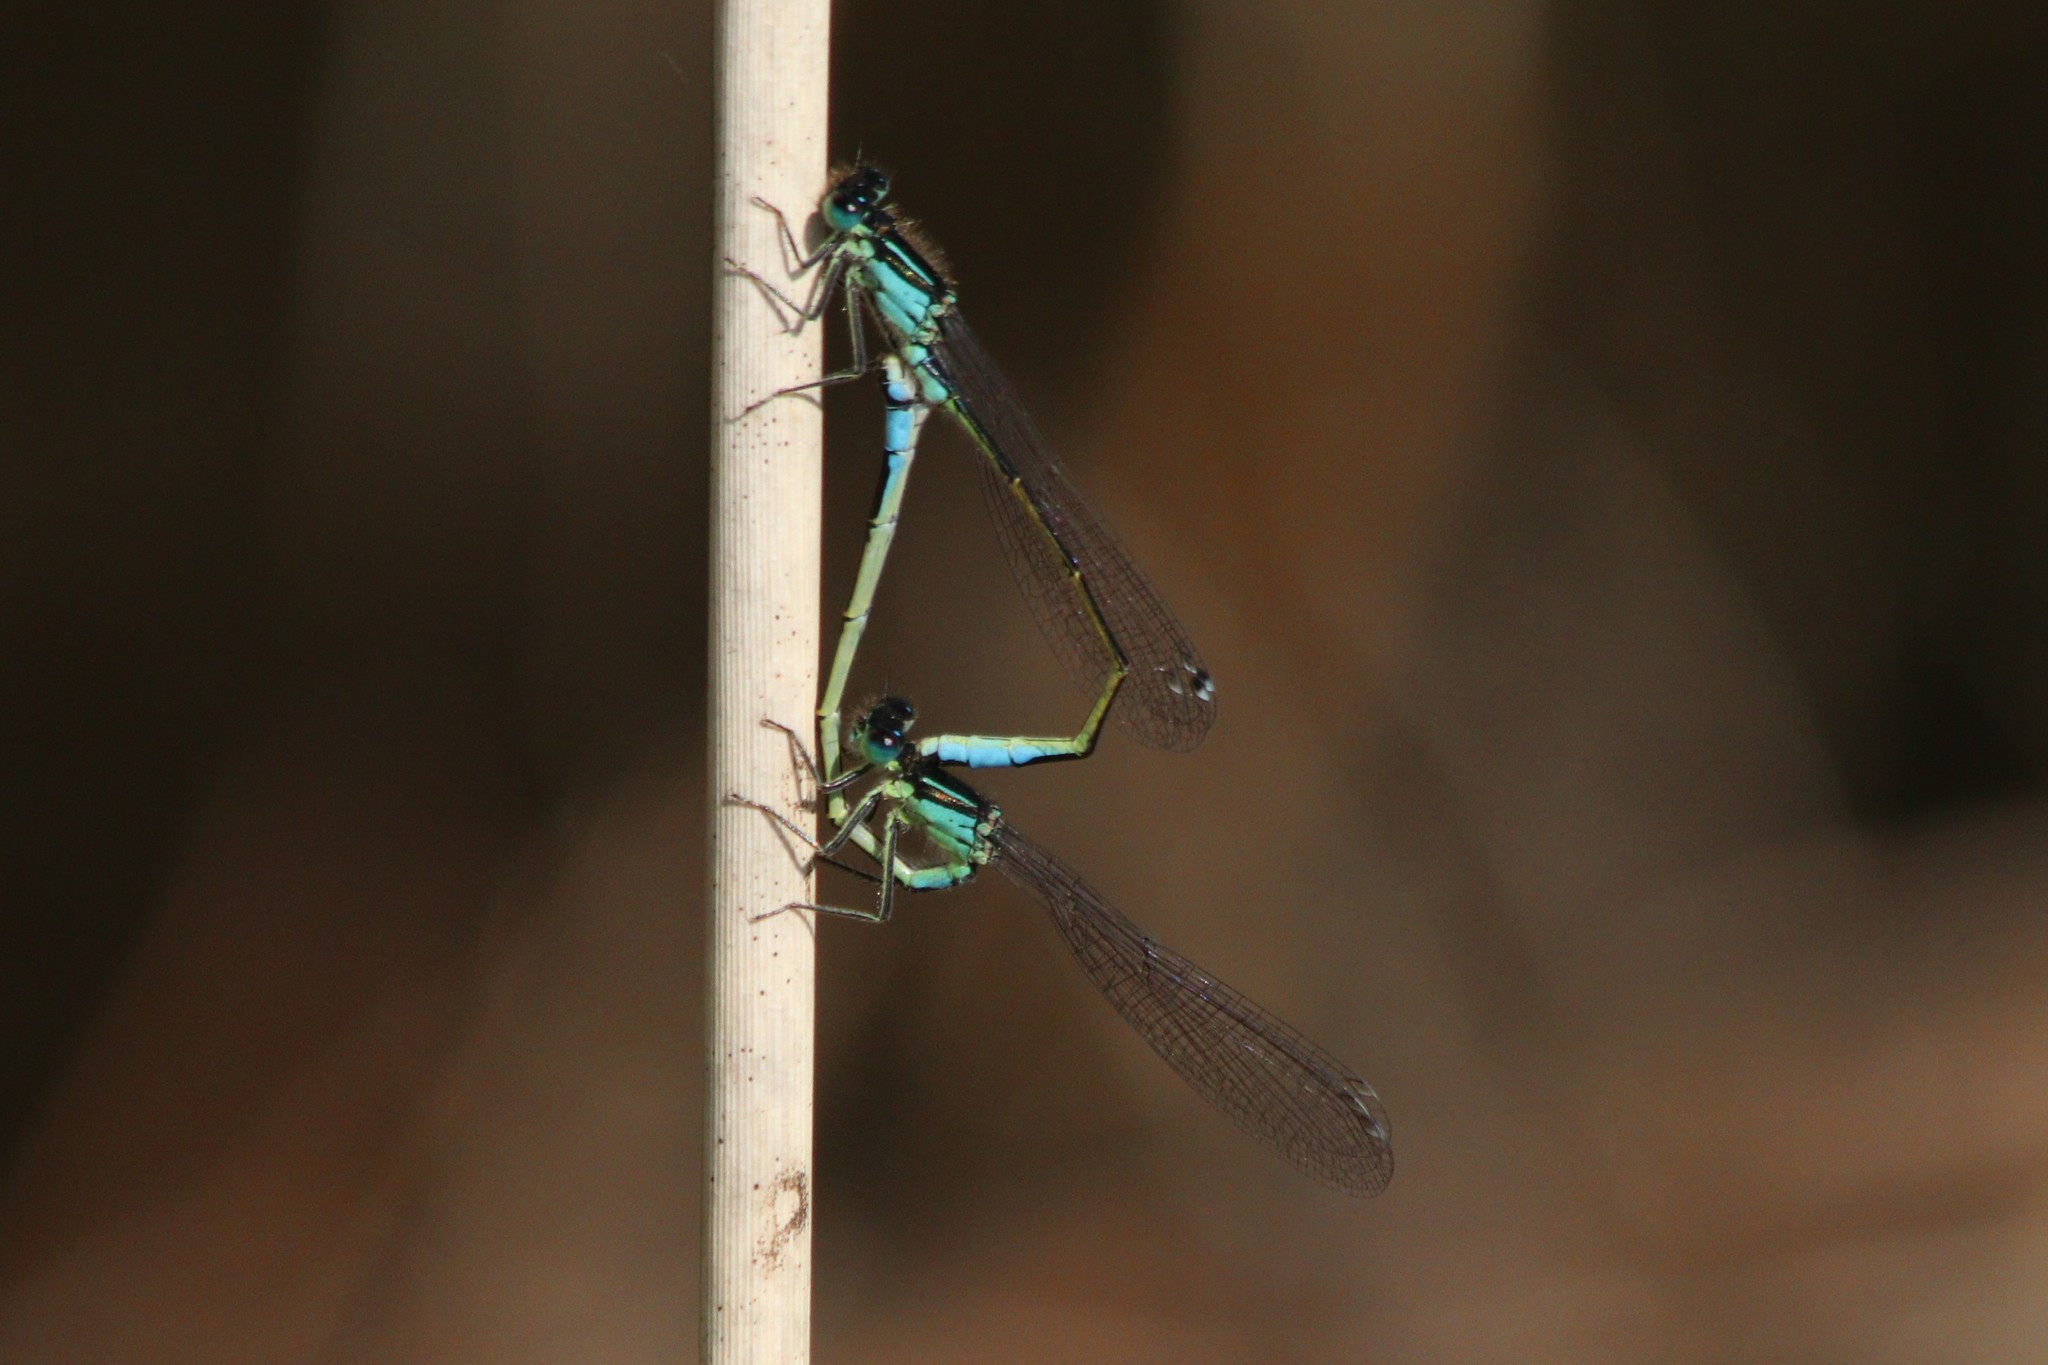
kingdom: Animalia
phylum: Arthropoda
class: Insecta
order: Odonata
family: Coenagrionidae
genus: Ischnura
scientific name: Ischnura elegans
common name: Blue-tailed damselfly
